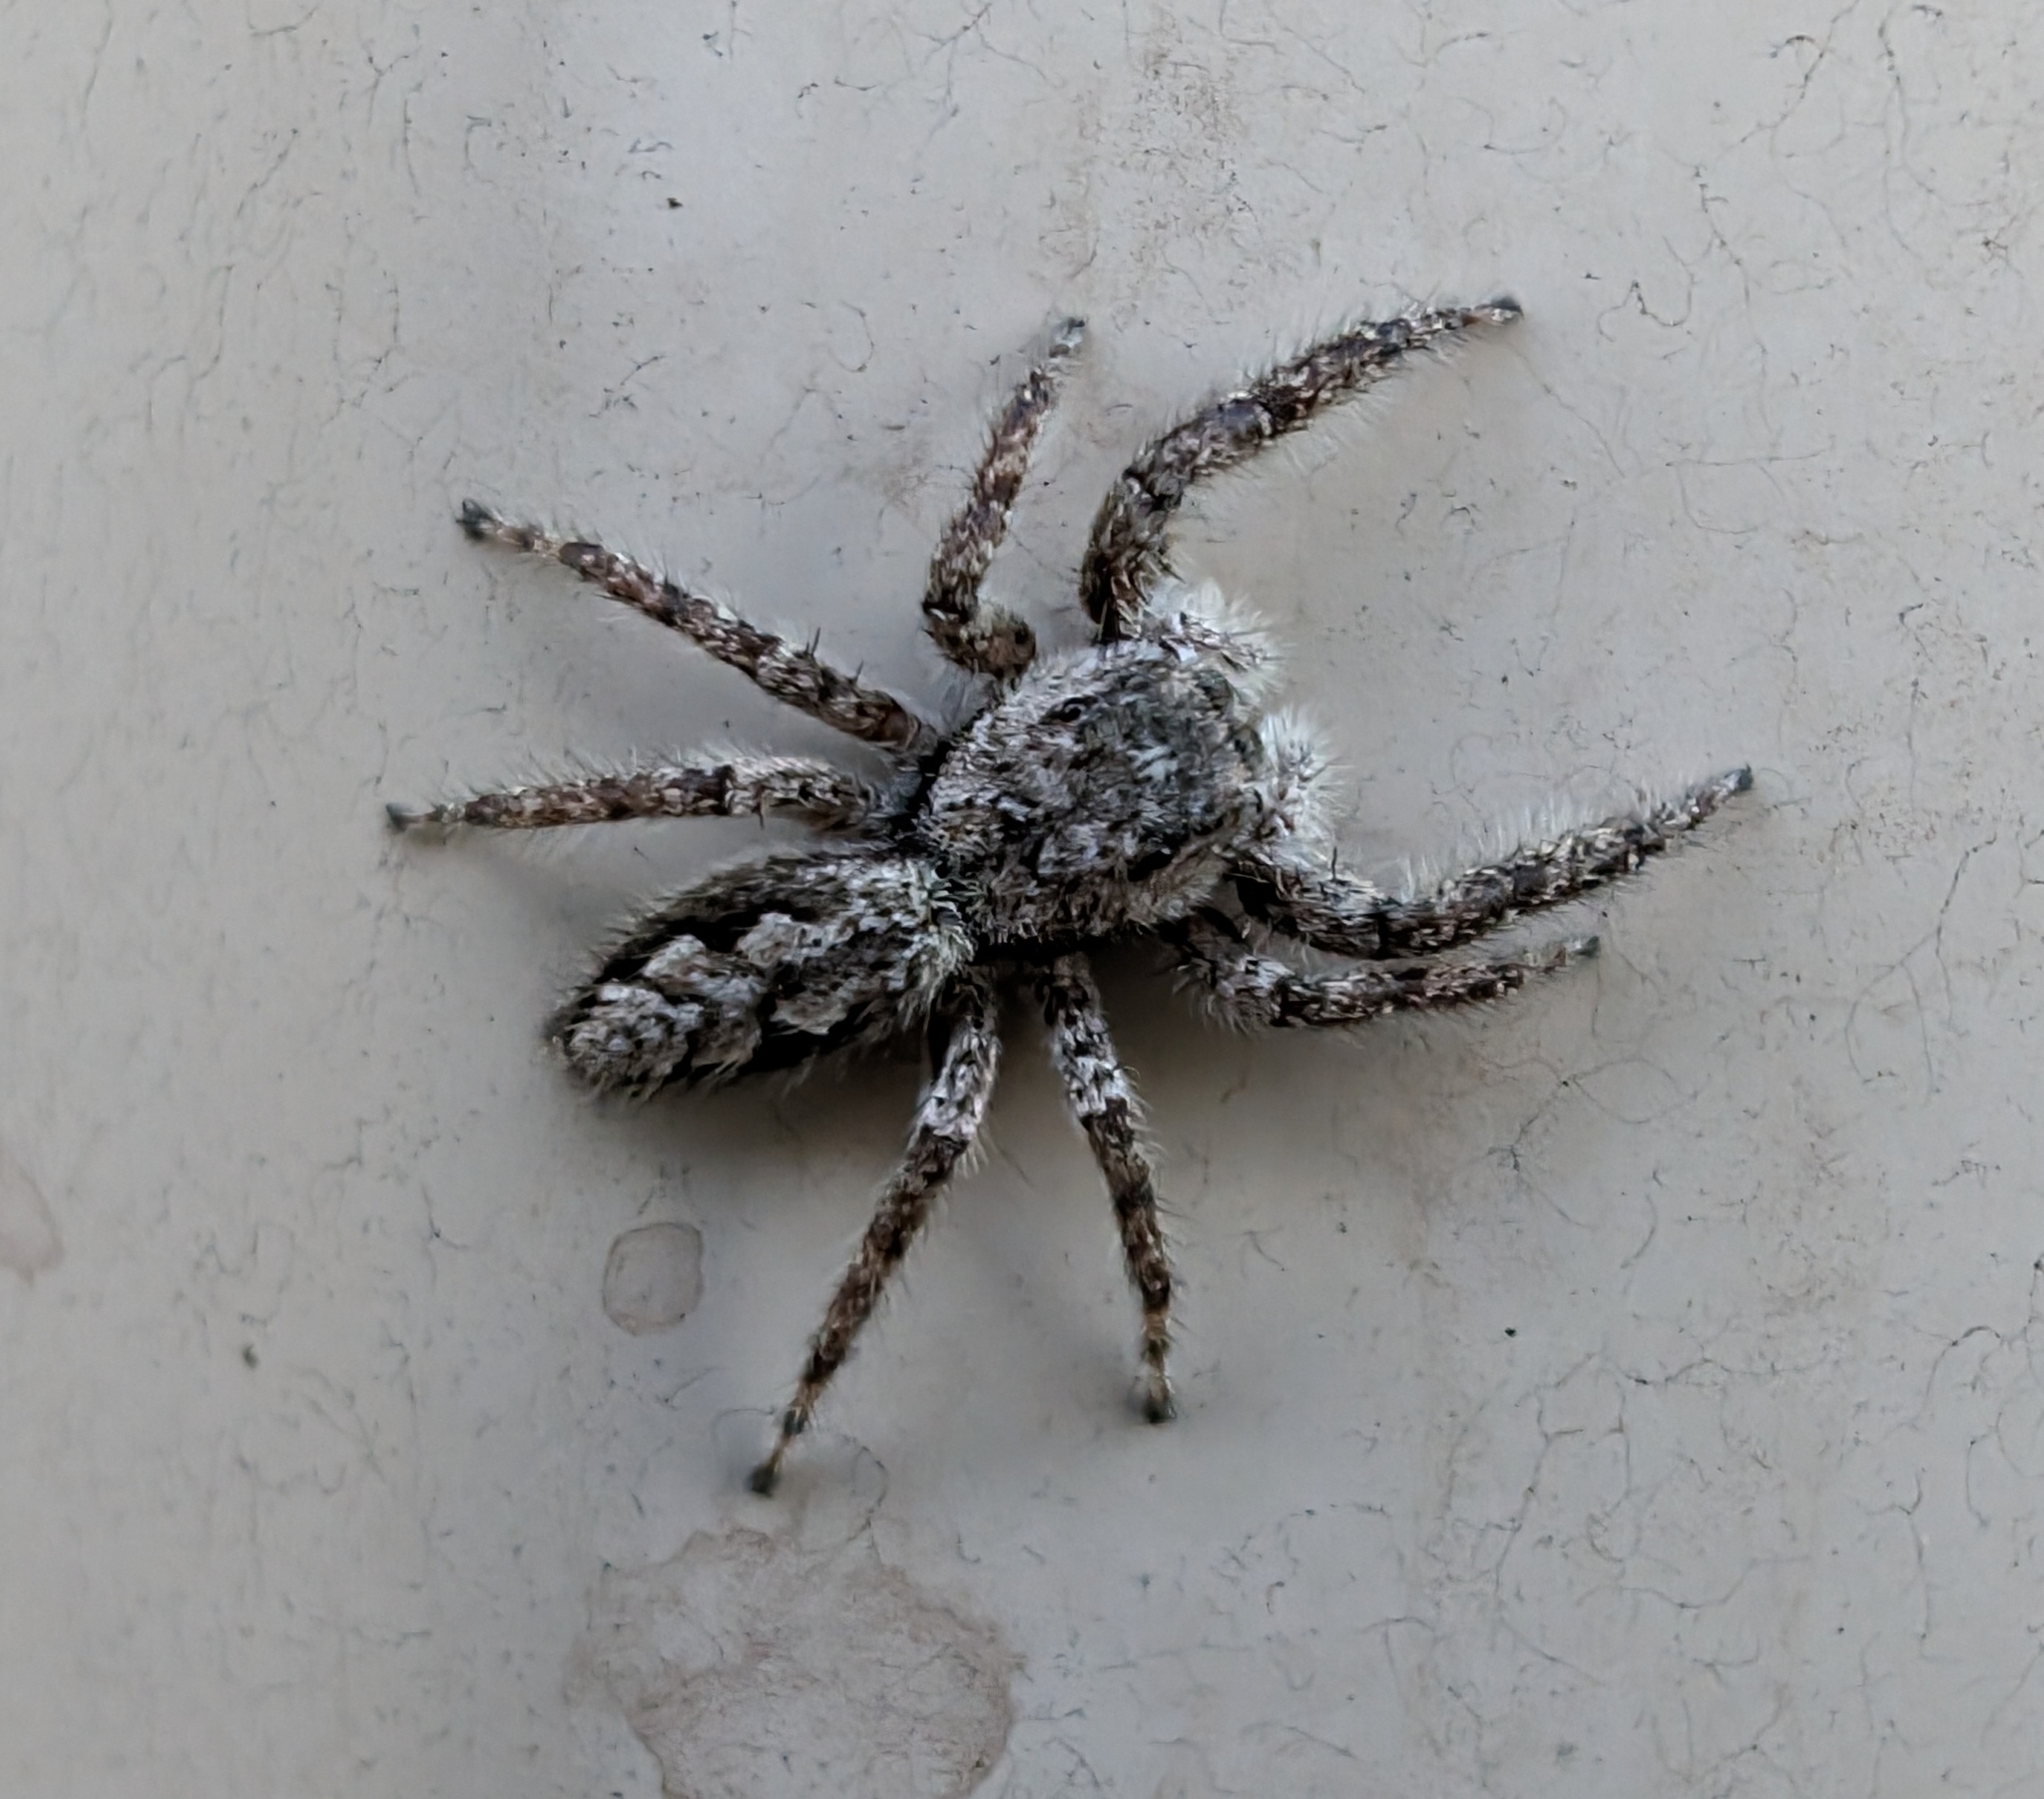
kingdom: Animalia
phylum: Arthropoda
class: Arachnida
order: Araneae
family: Salticidae
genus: Platycryptus
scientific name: Platycryptus undatus
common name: Tan jumping spider
